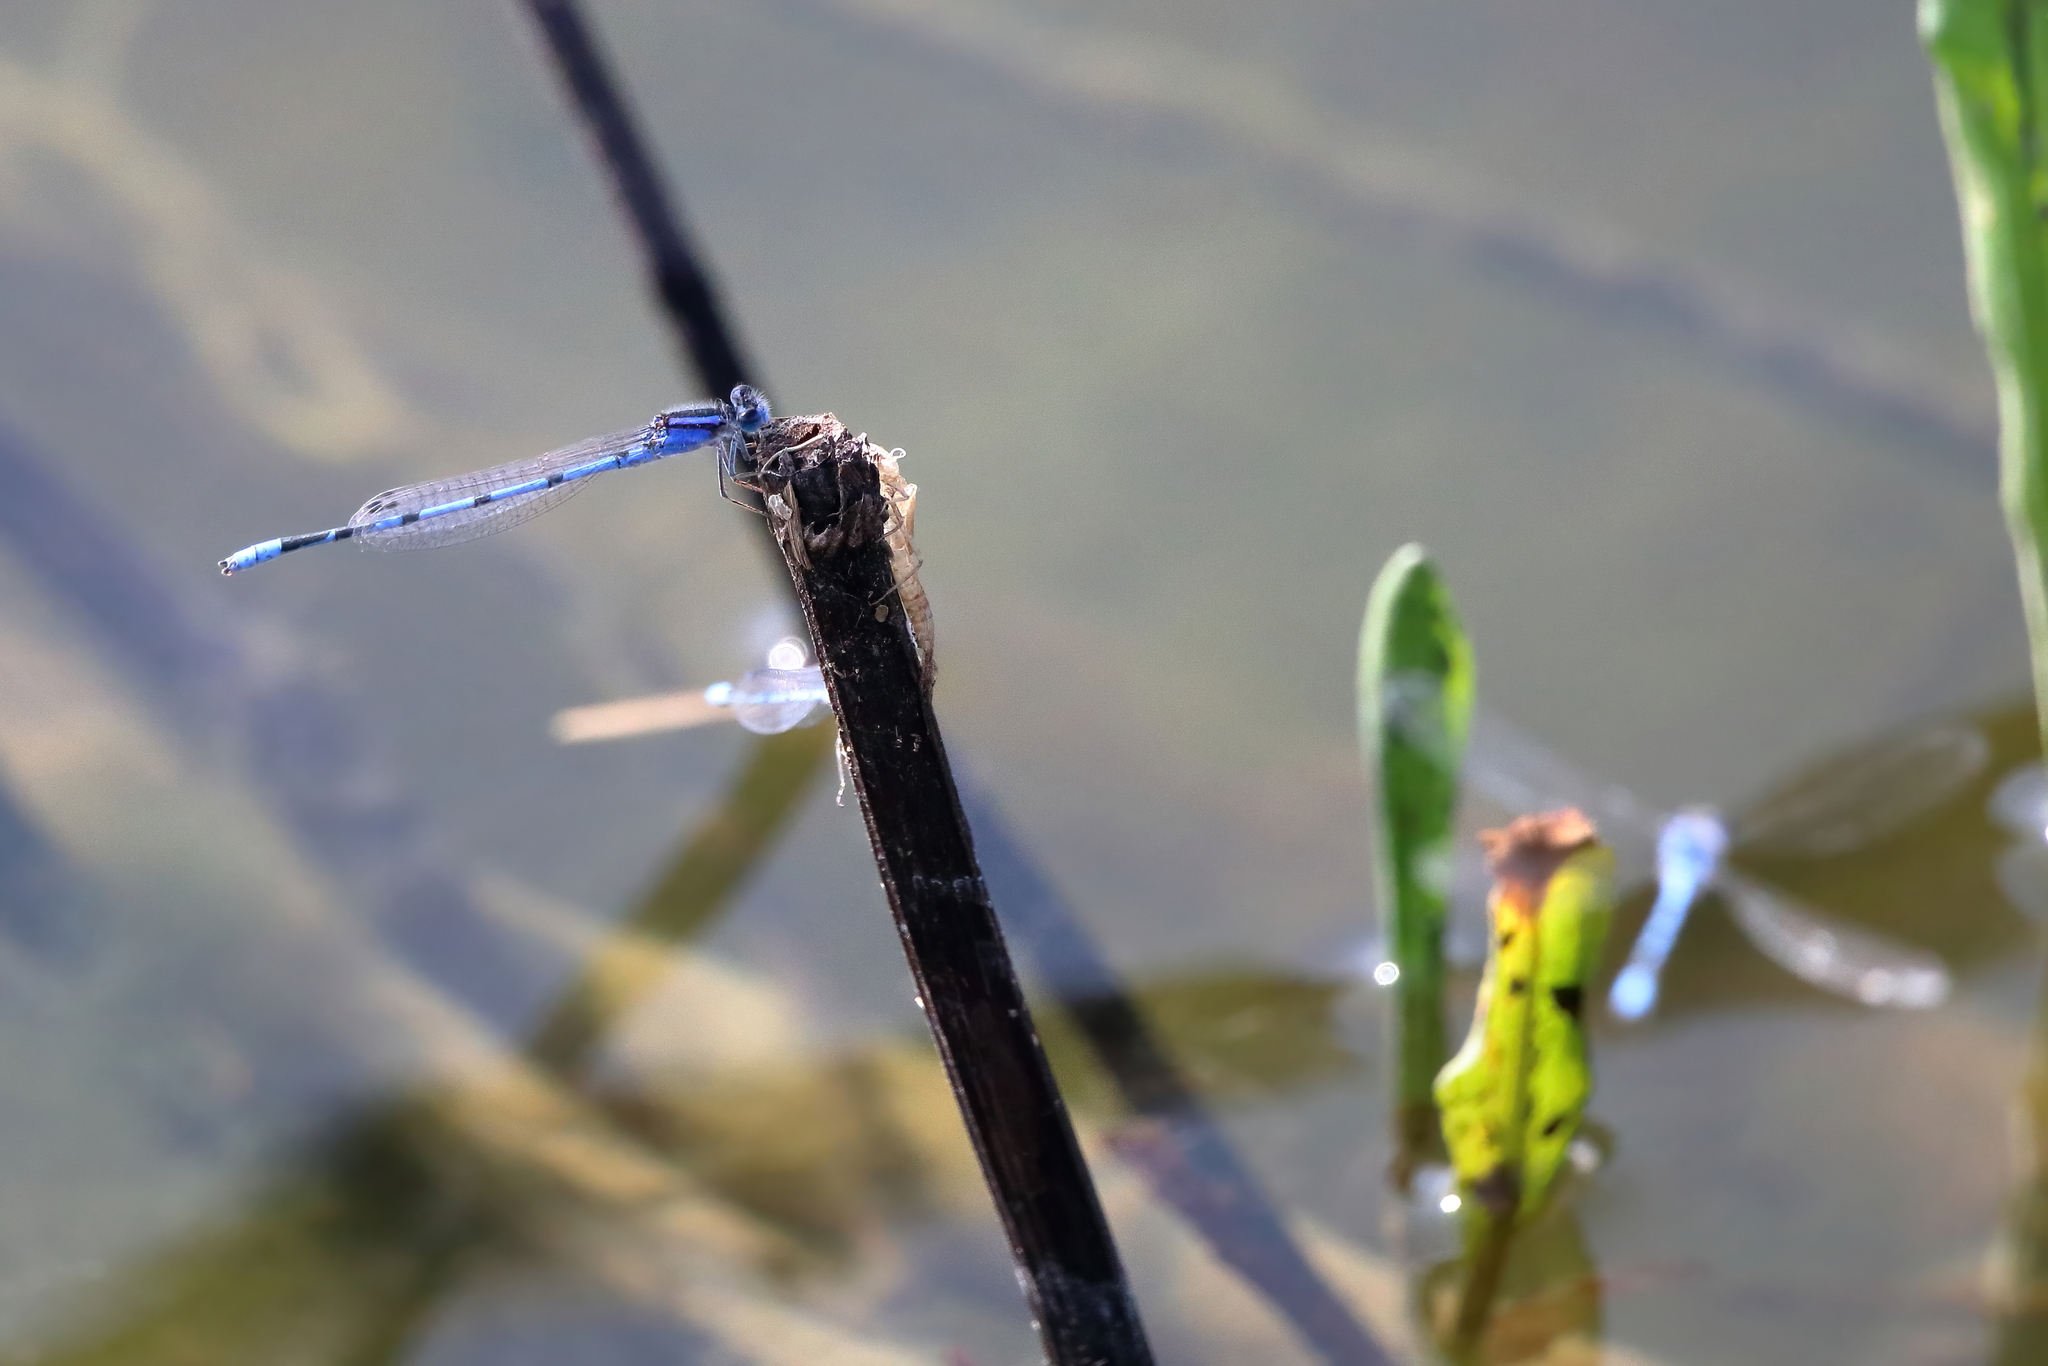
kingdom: Animalia
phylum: Arthropoda
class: Insecta
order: Odonata
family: Coenagrionidae
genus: Enallagma
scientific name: Enallagma civile
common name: Damselfly
